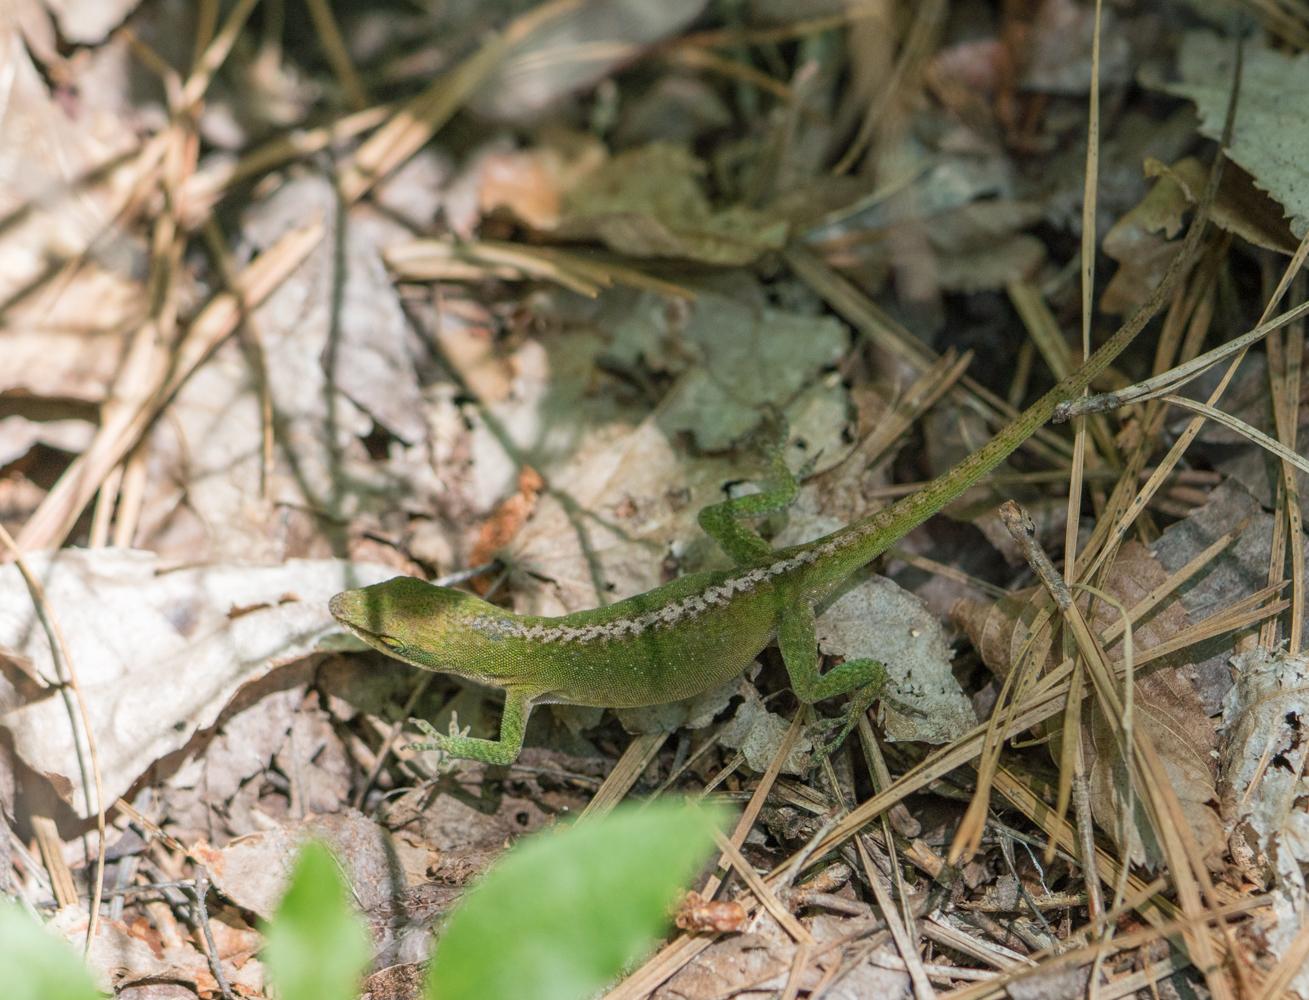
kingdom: Animalia
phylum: Chordata
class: Squamata
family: Dactyloidae
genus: Anolis
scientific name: Anolis carolinensis
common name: Green anole
